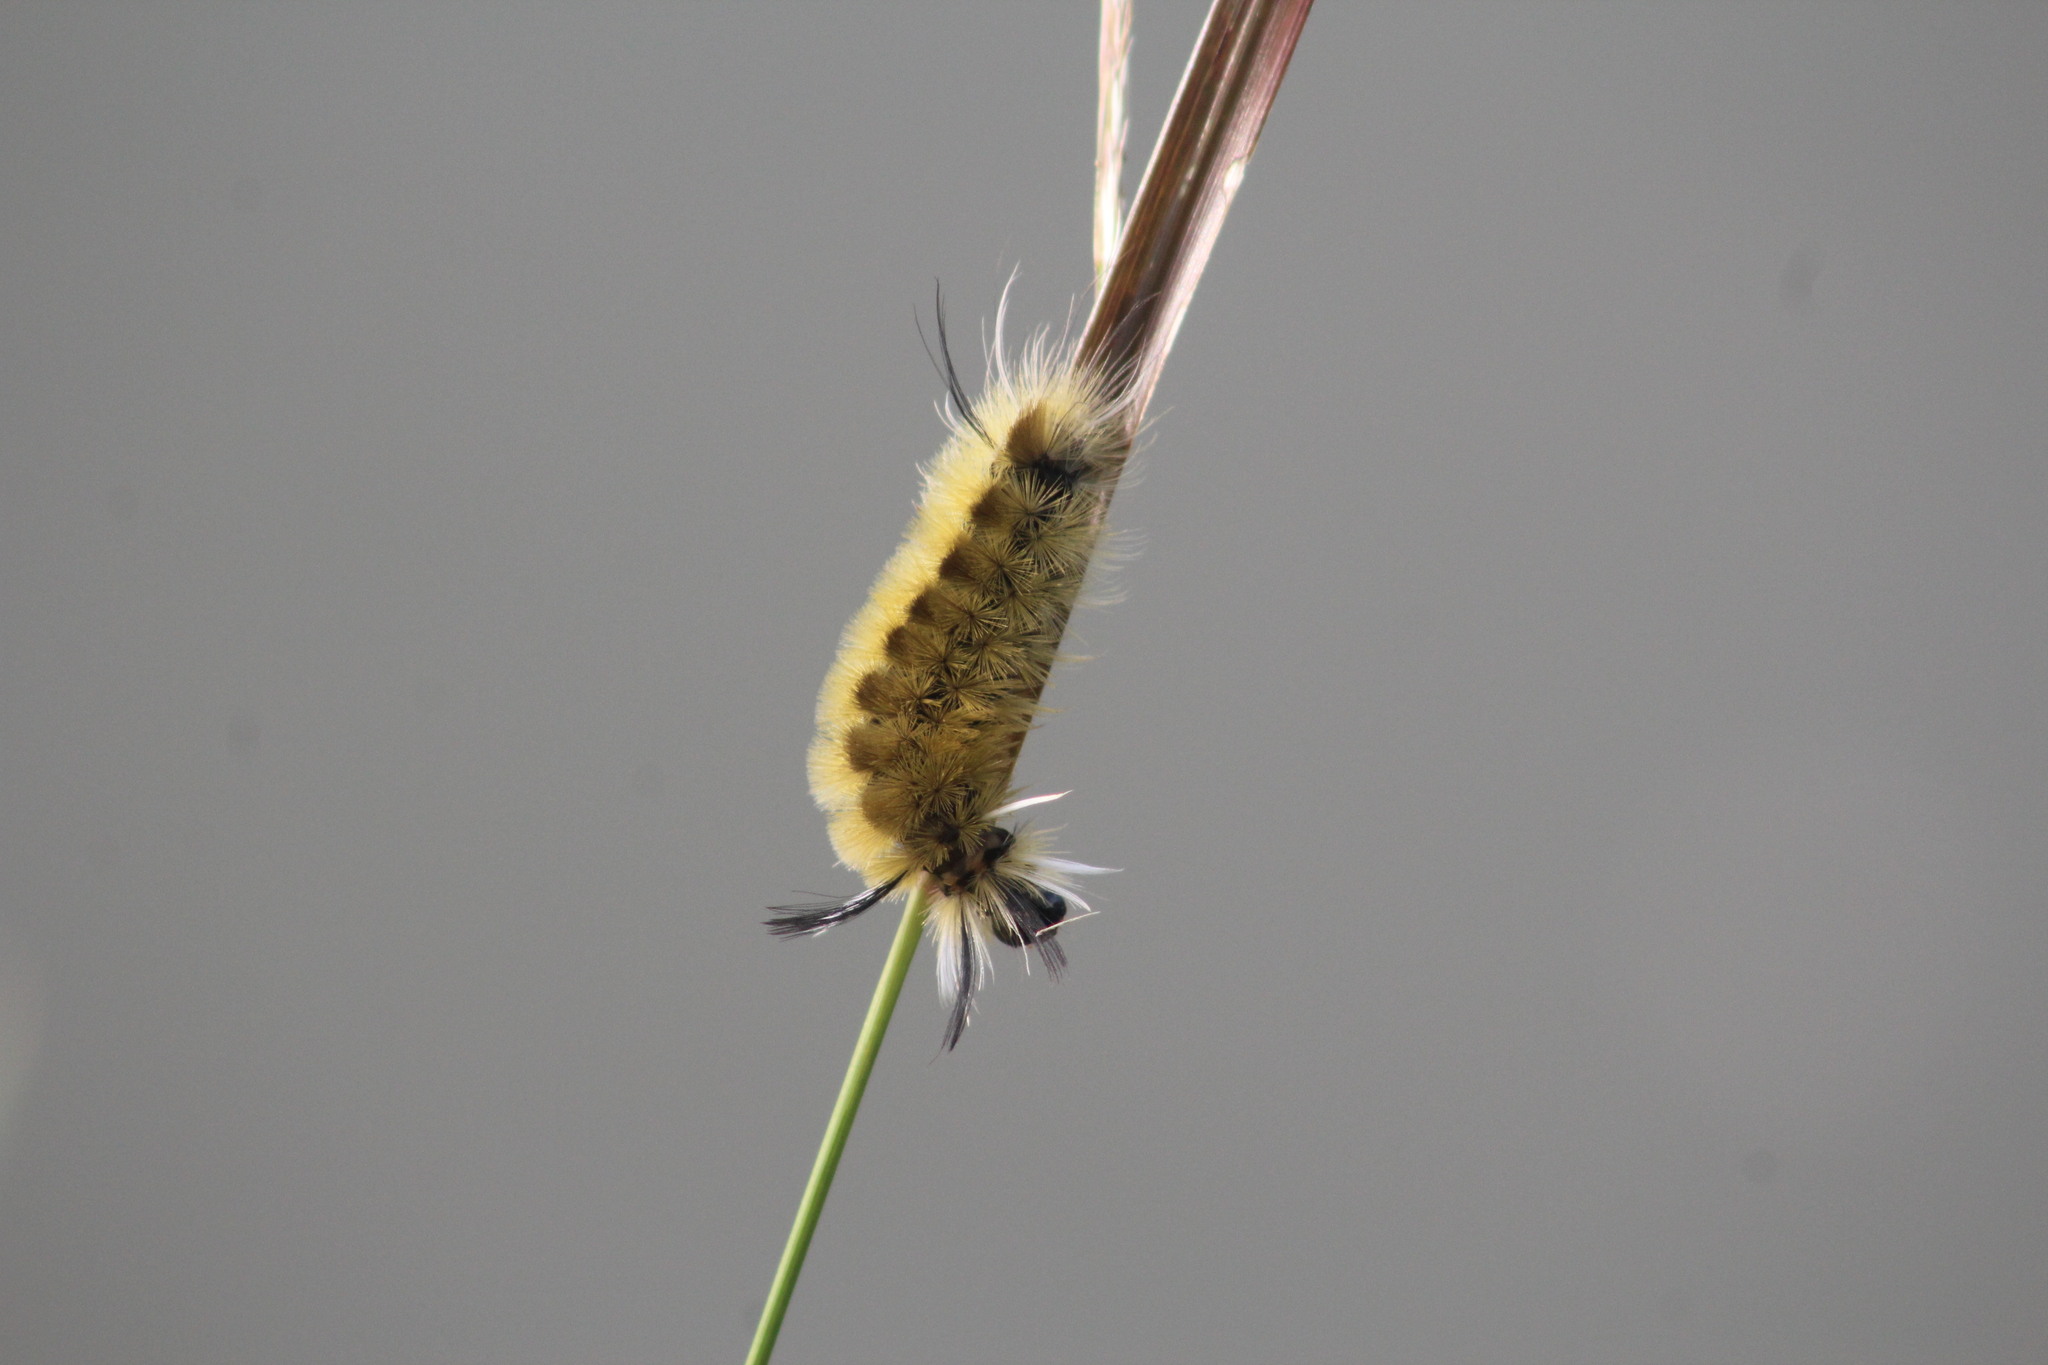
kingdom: Animalia
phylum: Arthropoda
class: Insecta
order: Lepidoptera
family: Erebidae
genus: Halysidota
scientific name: Halysidota tessellaris
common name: Banded tussock moth
